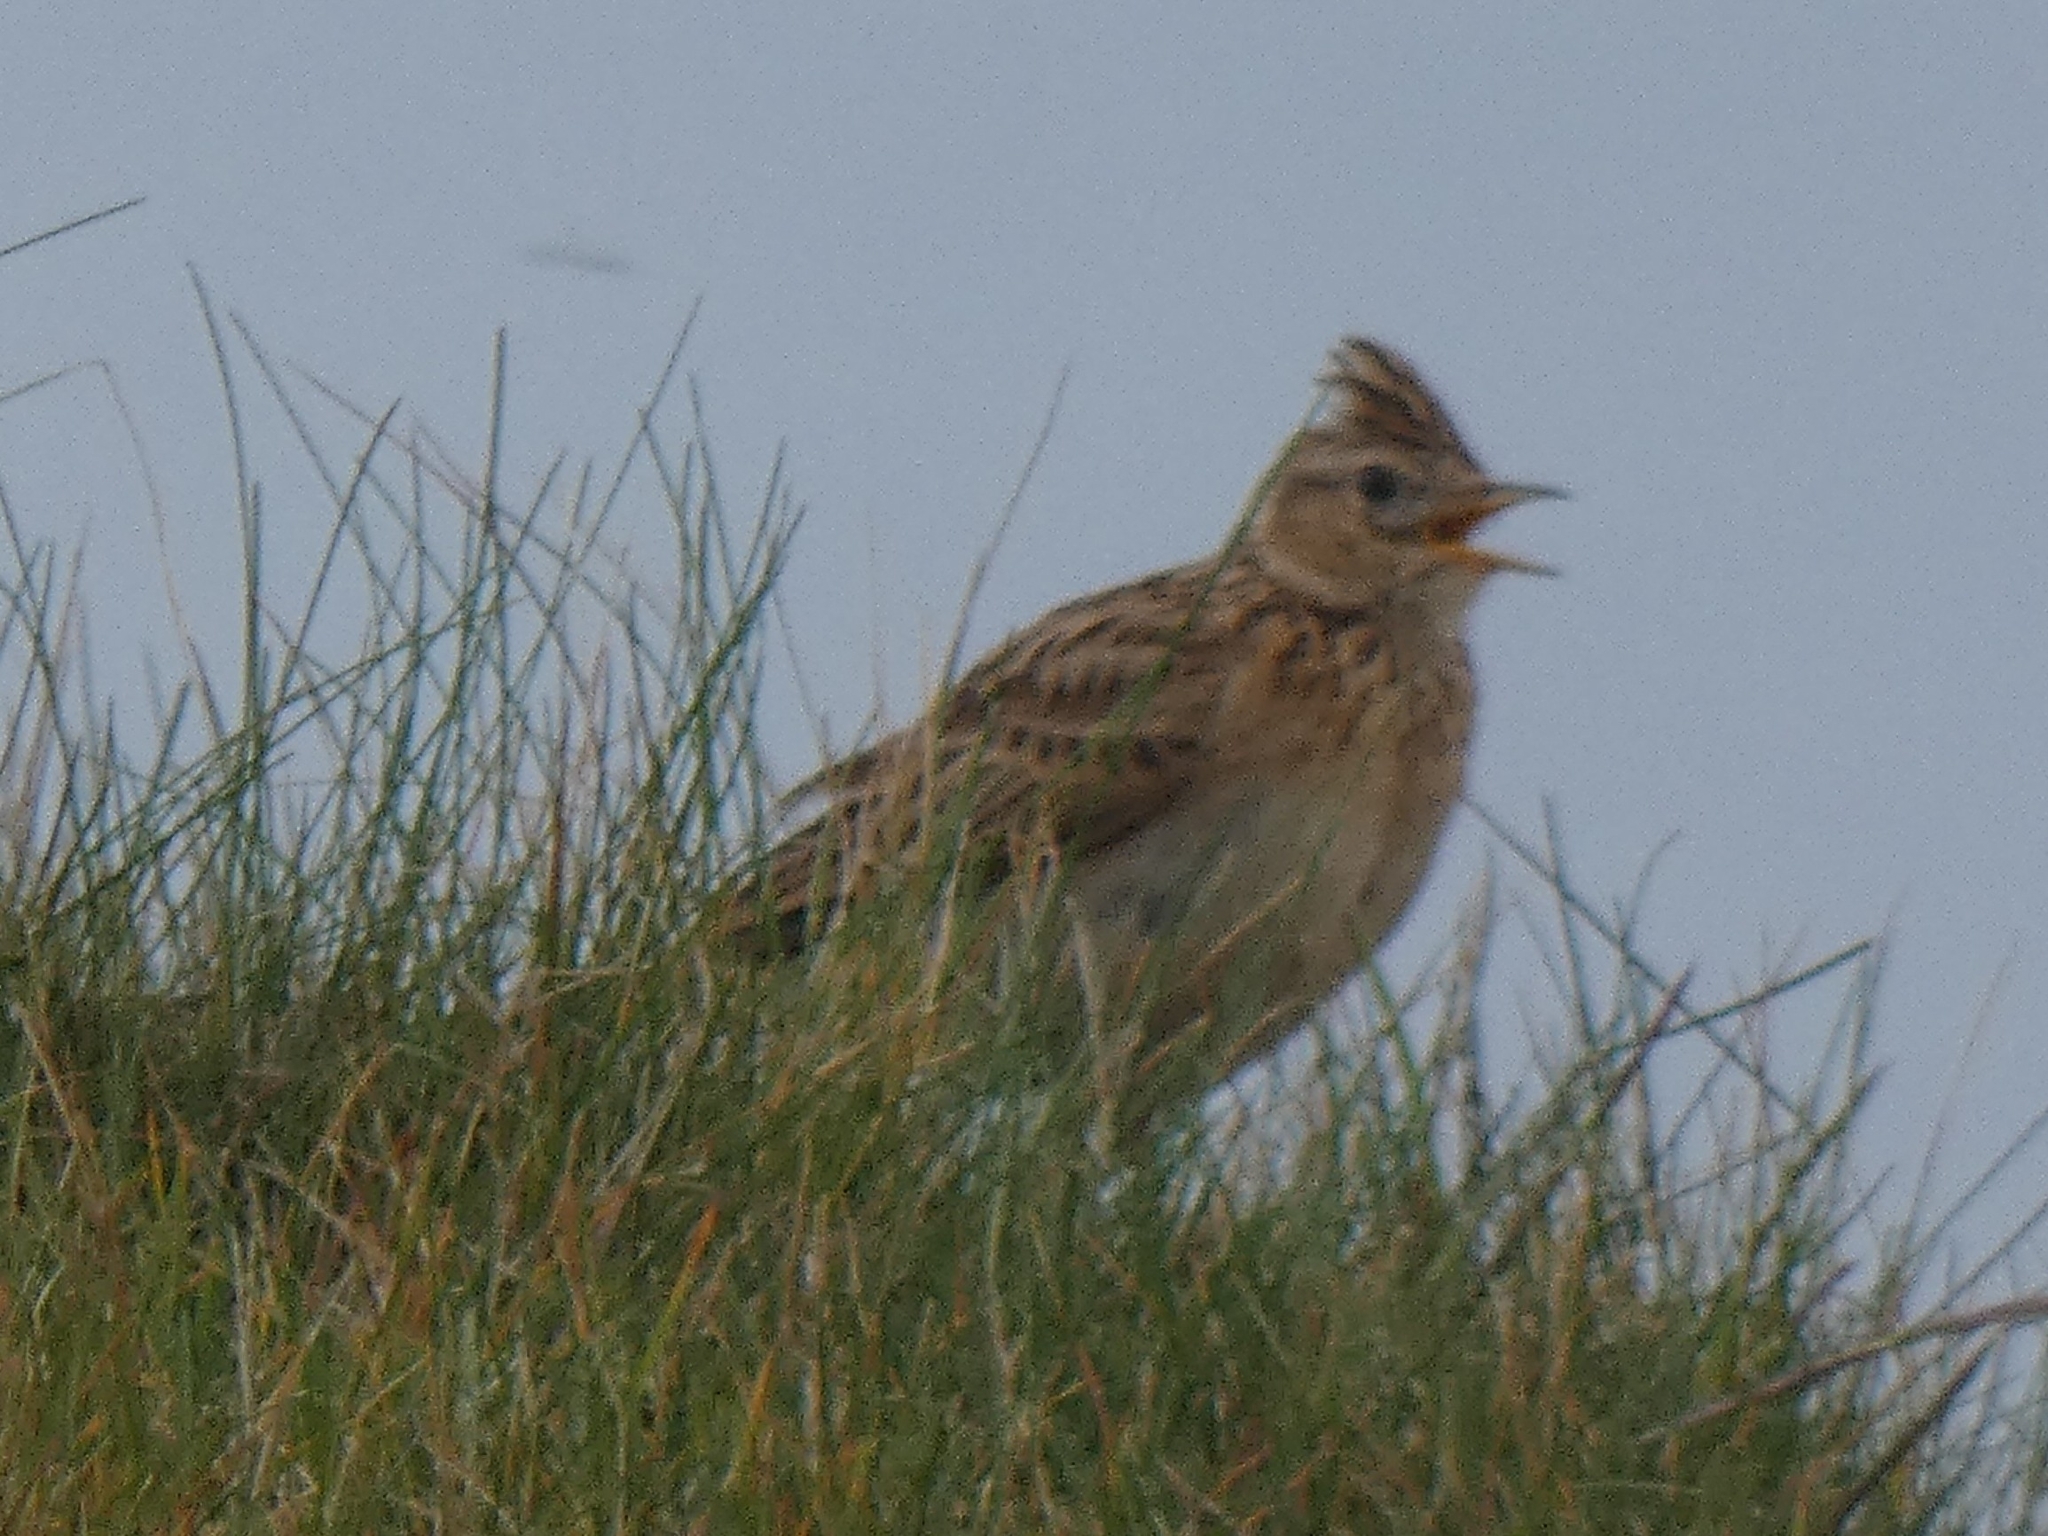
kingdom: Animalia
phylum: Chordata
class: Aves
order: Passeriformes
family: Alaudidae
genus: Alauda
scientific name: Alauda arvensis
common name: Eurasian skylark
